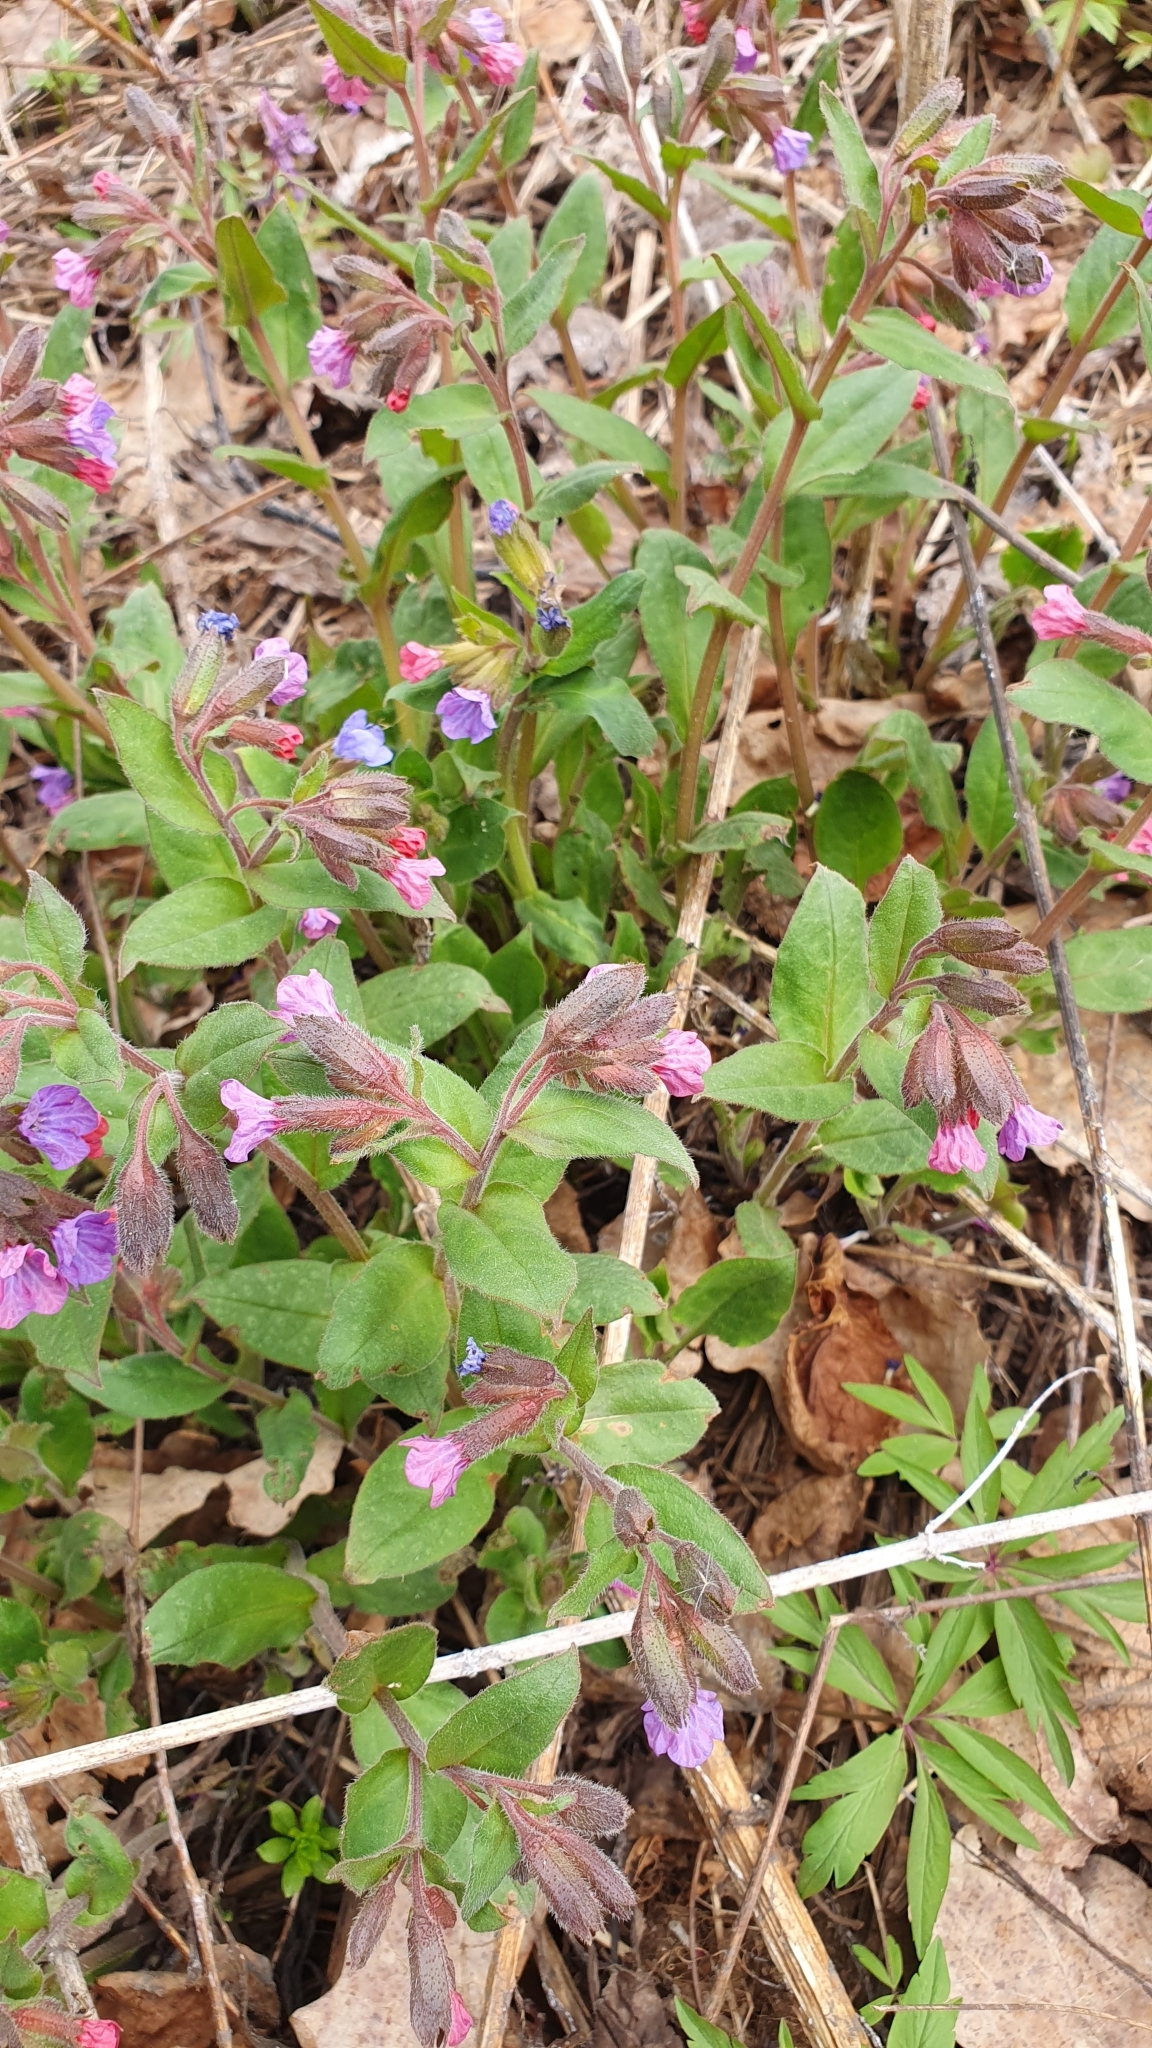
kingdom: Plantae
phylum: Tracheophyta
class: Magnoliopsida
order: Boraginales
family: Boraginaceae
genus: Pulmonaria
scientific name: Pulmonaria obscura
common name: Suffolk lungwort
